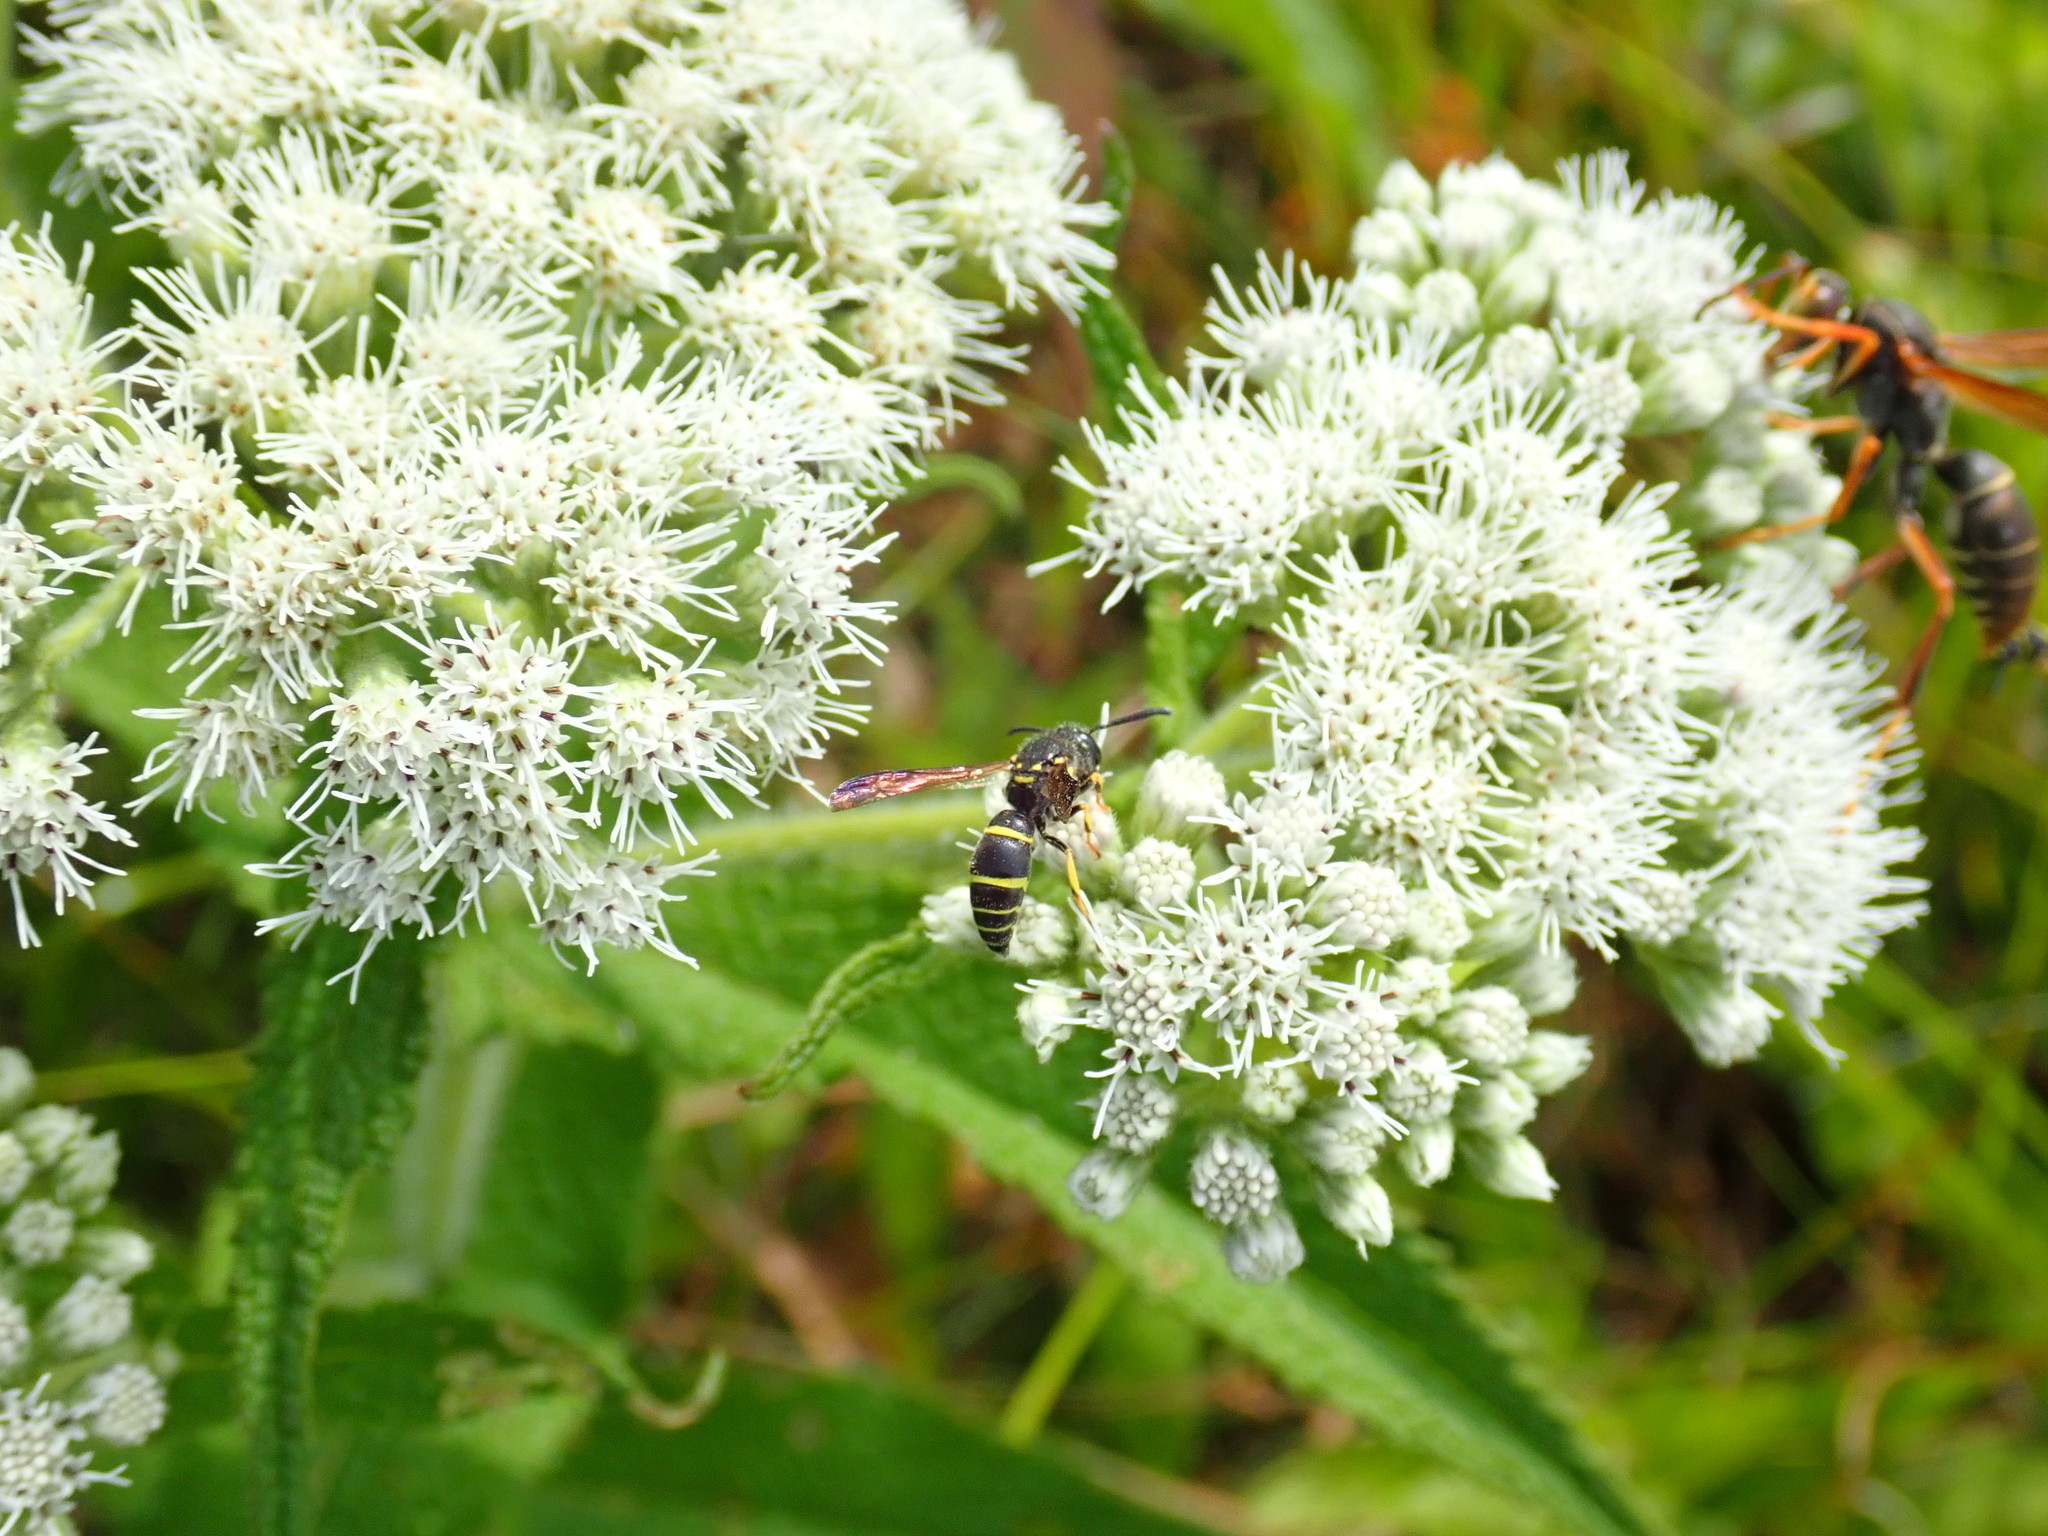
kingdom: Animalia
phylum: Arthropoda
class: Insecta
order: Hymenoptera
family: Vespidae
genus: Ancistrocerus
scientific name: Ancistrocerus adiabatus
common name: Bramble mason wasp
